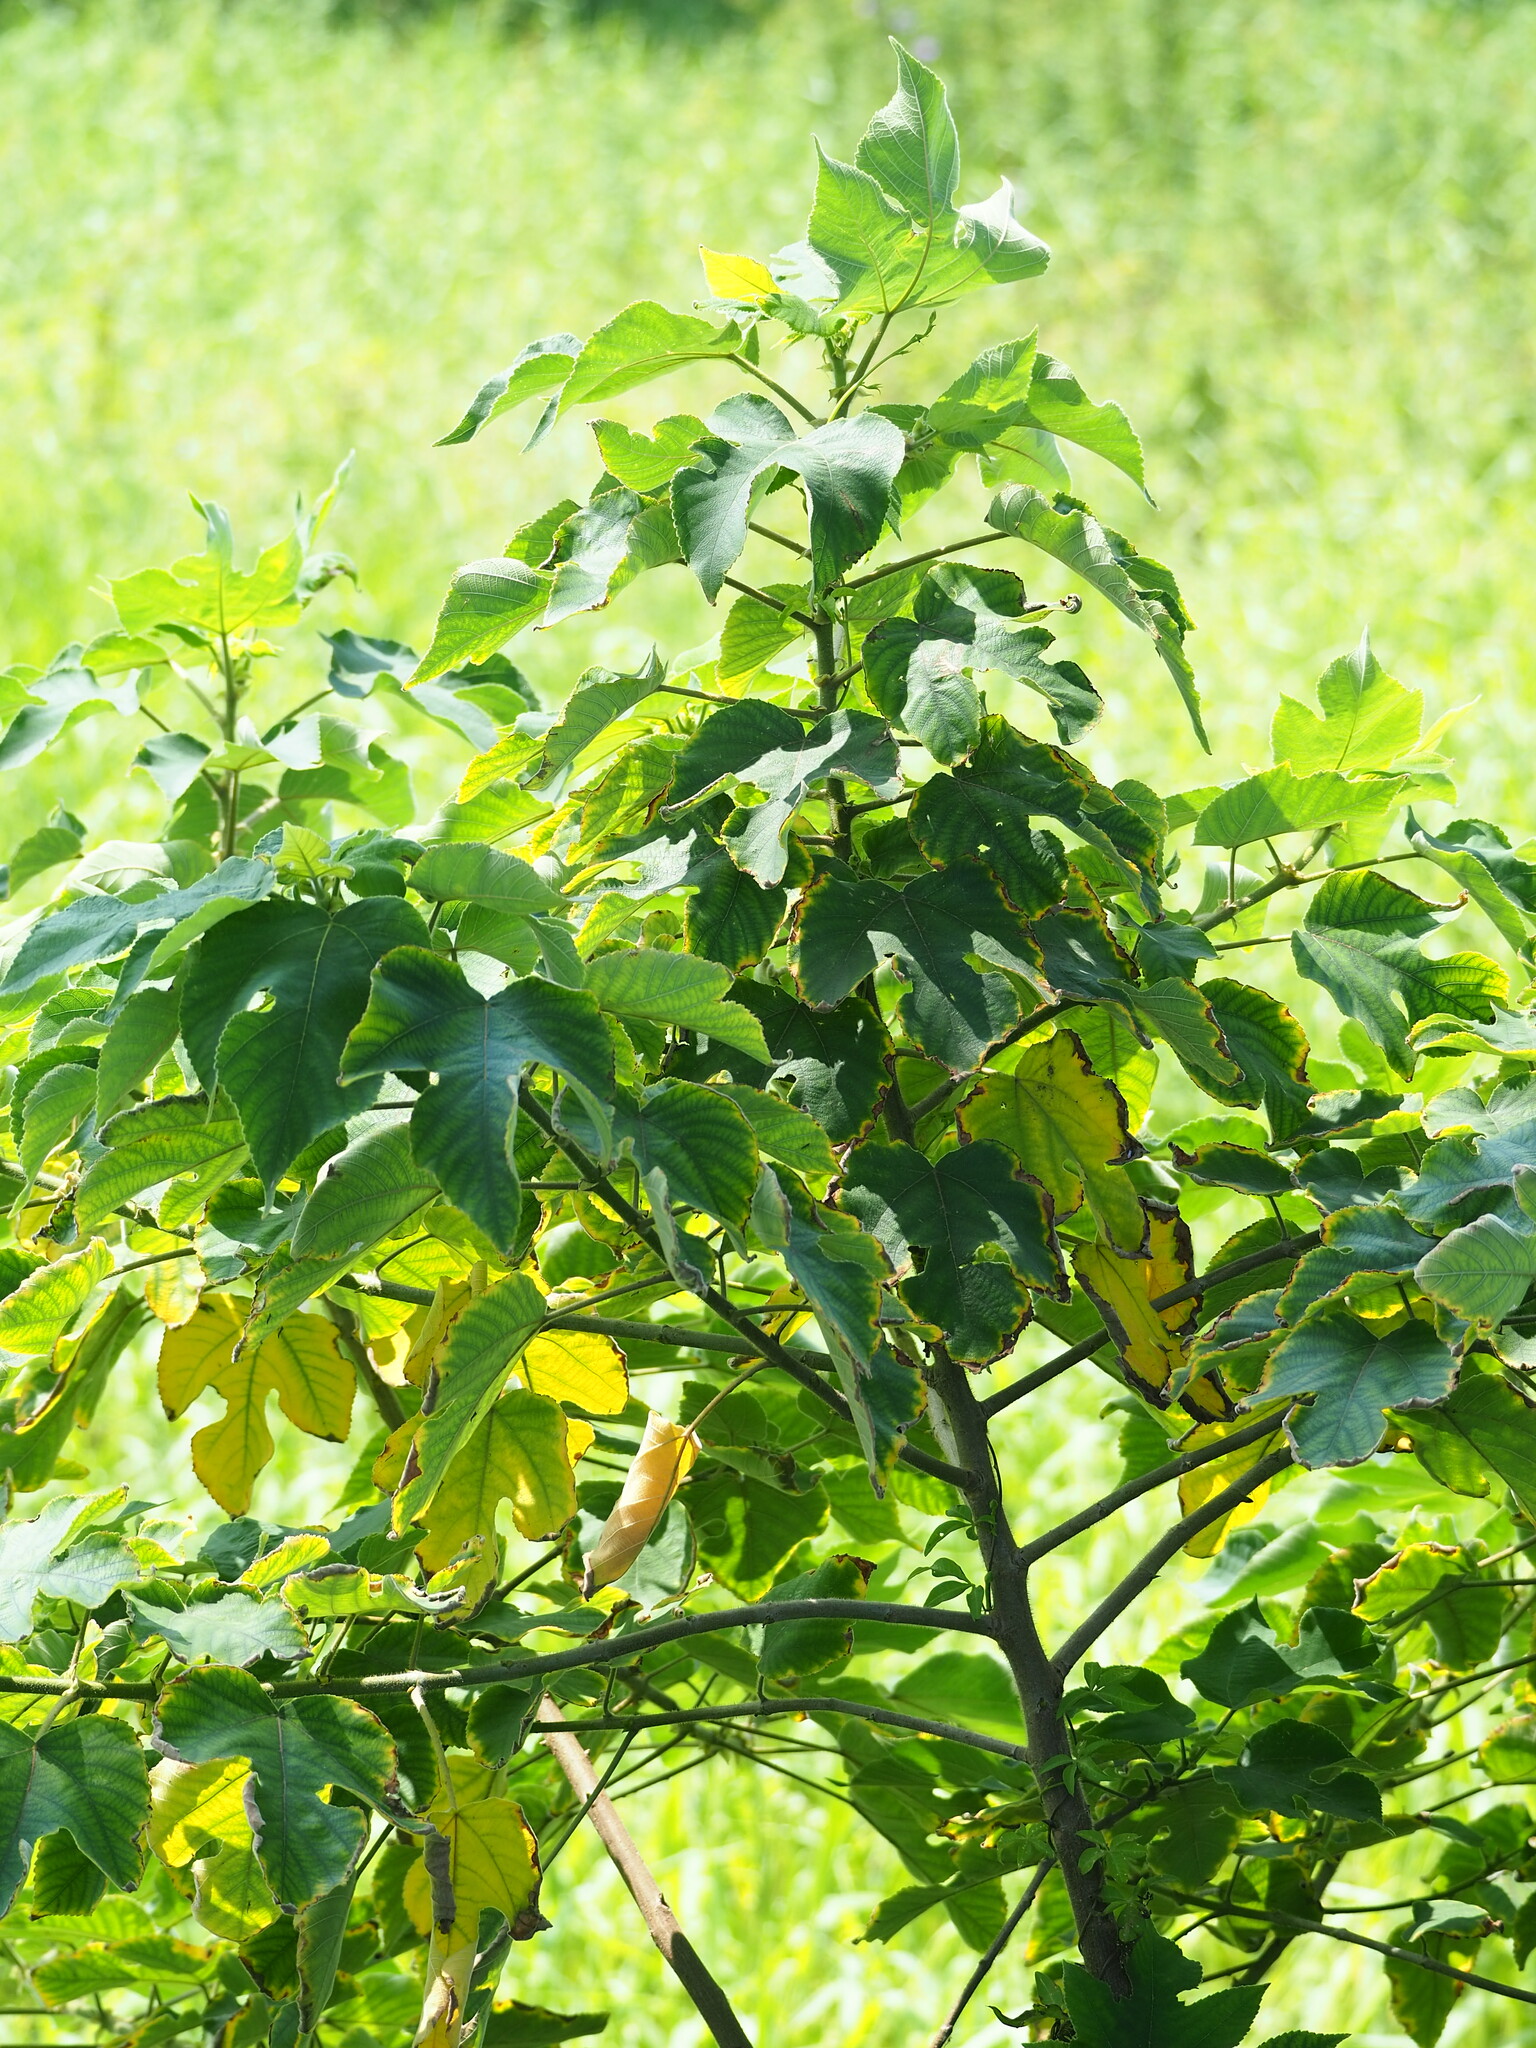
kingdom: Plantae
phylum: Tracheophyta
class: Magnoliopsida
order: Rosales
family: Moraceae
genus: Broussonetia
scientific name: Broussonetia papyrifera
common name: Paper mulberry
